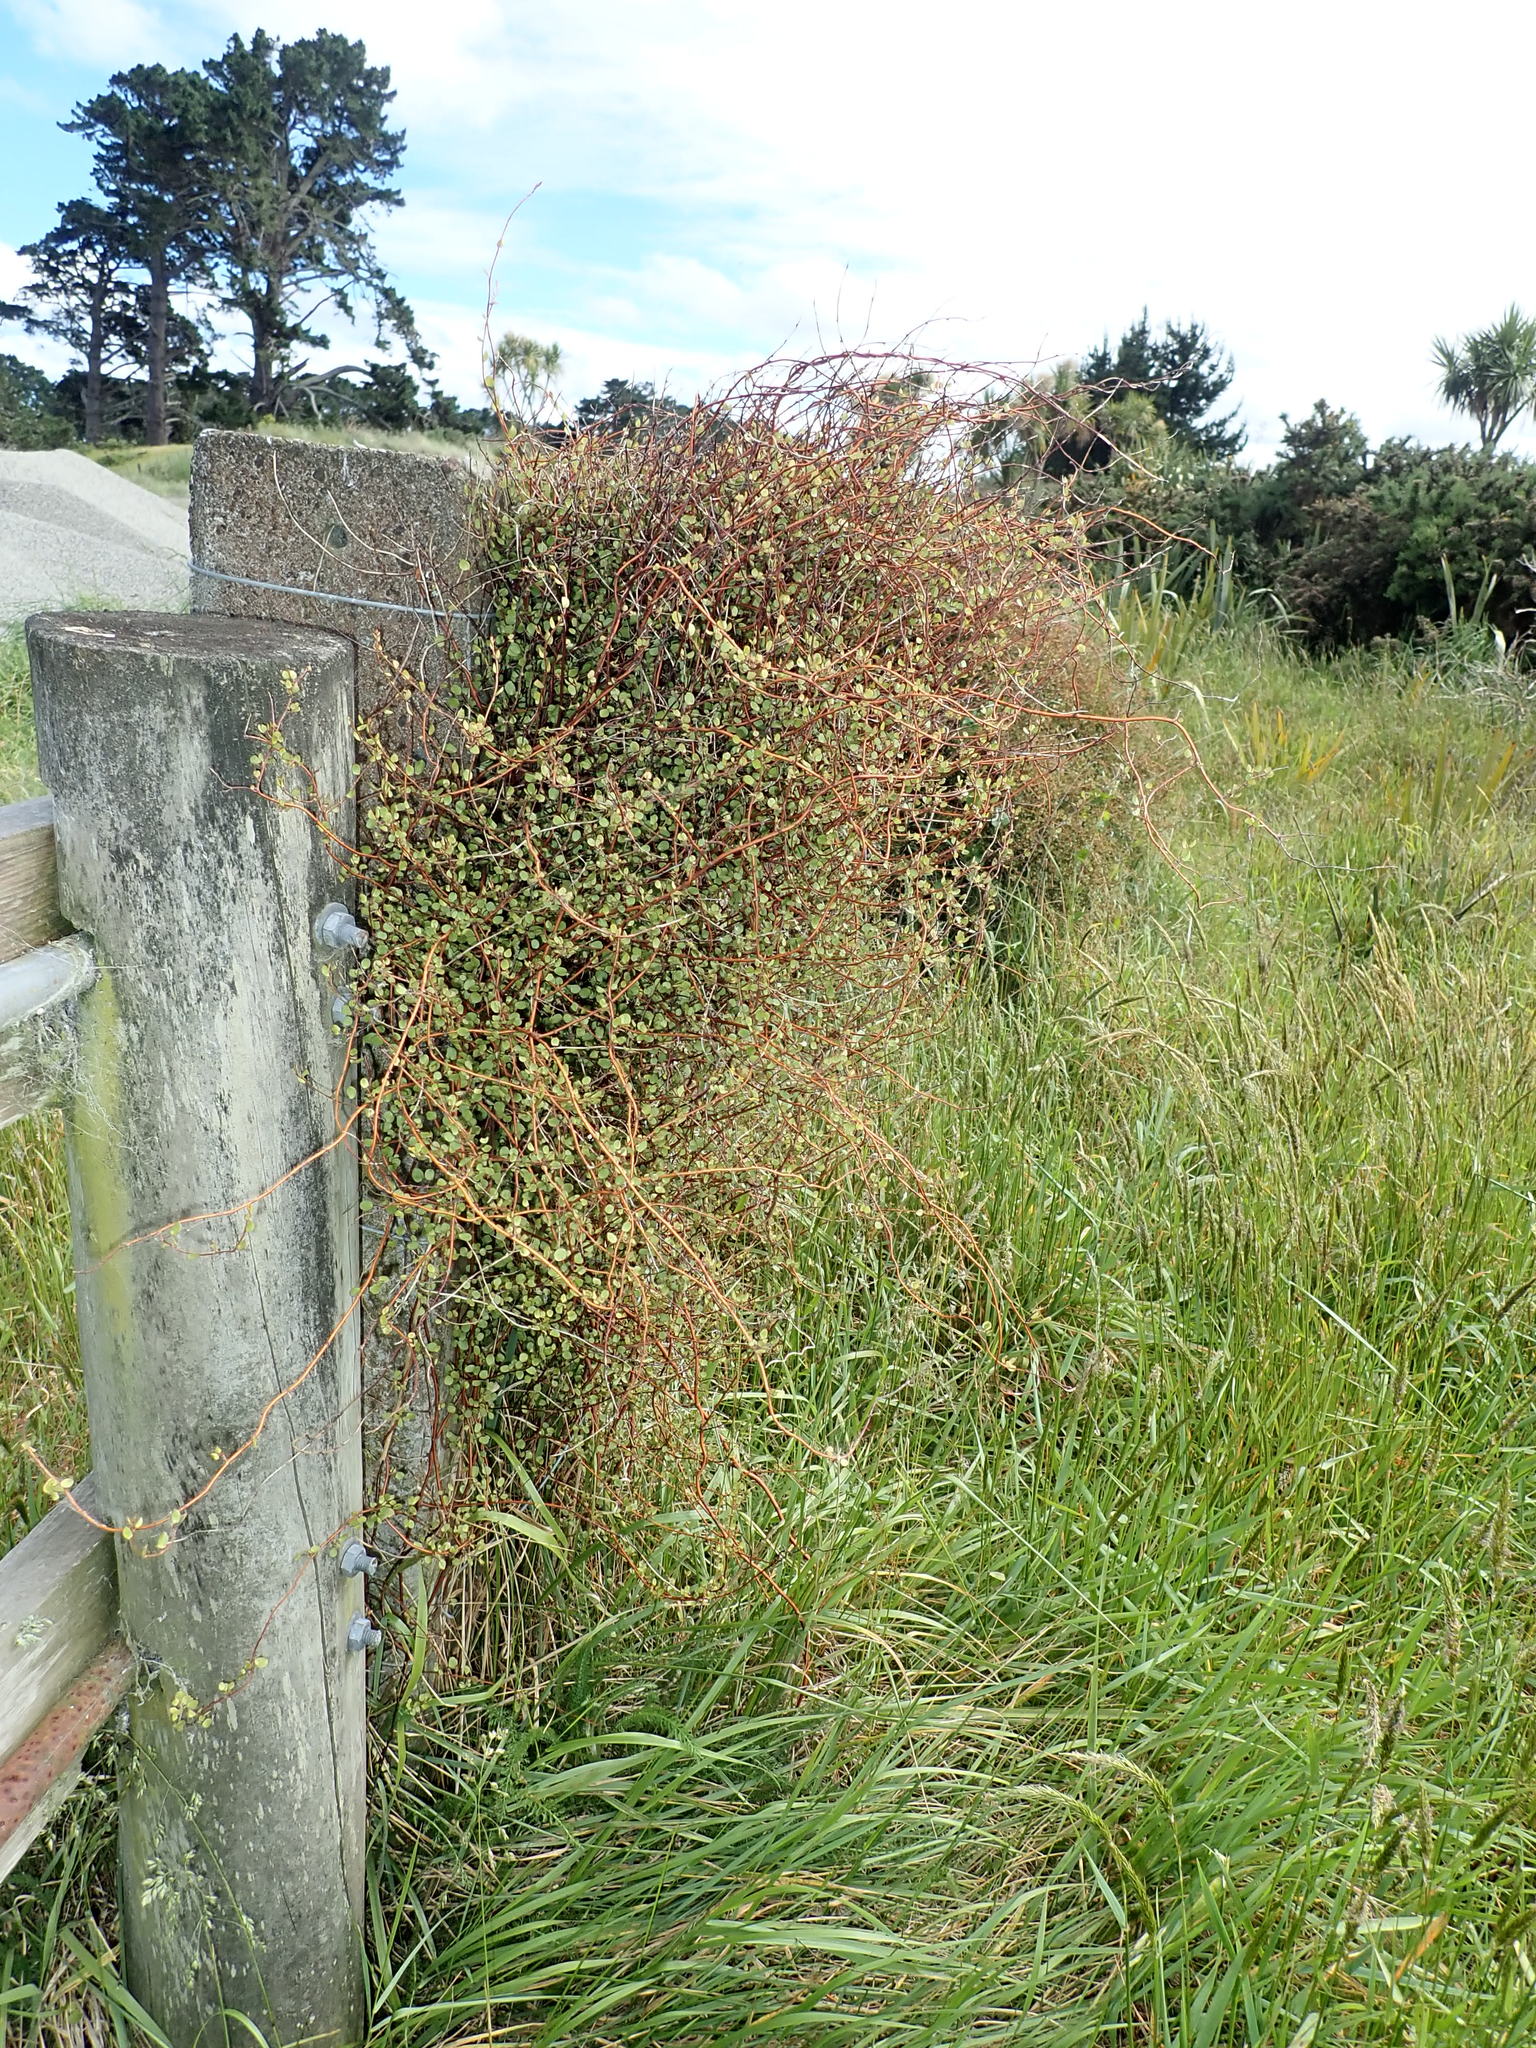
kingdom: Plantae
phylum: Tracheophyta
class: Magnoliopsida
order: Caryophyllales
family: Polygonaceae
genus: Muehlenbeckia
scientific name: Muehlenbeckia complexa
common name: Wireplant
